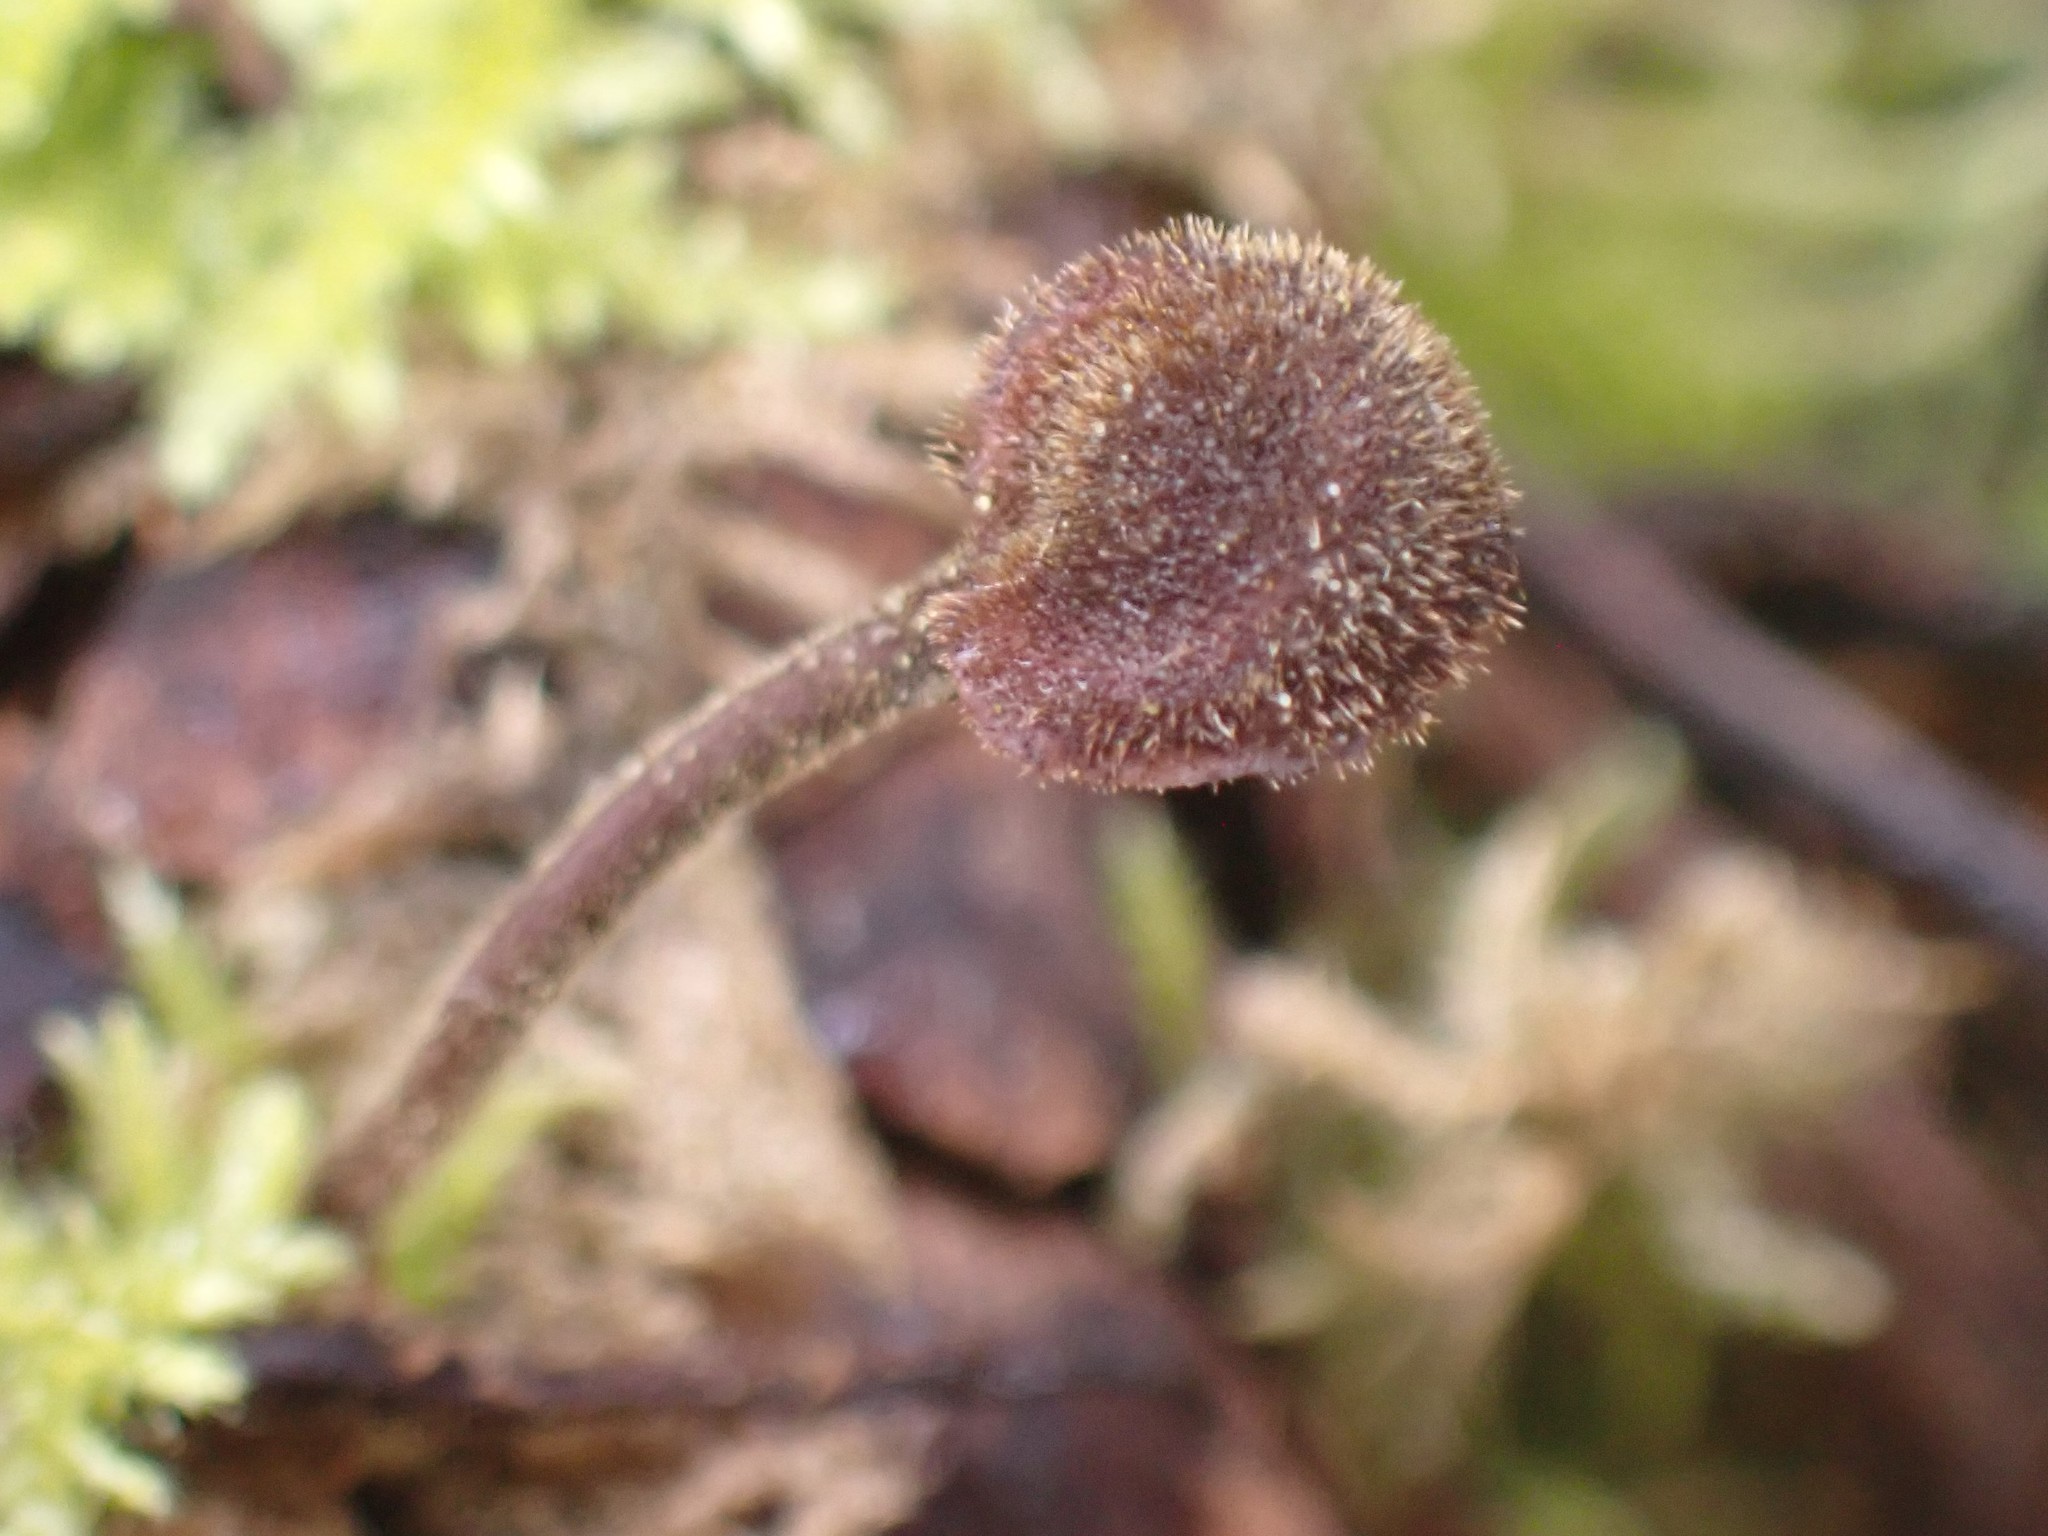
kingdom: Fungi
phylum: Basidiomycota
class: Agaricomycetes
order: Russulales
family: Auriscalpiaceae
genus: Auriscalpium
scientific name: Auriscalpium vulgare
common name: Earpick fungus
